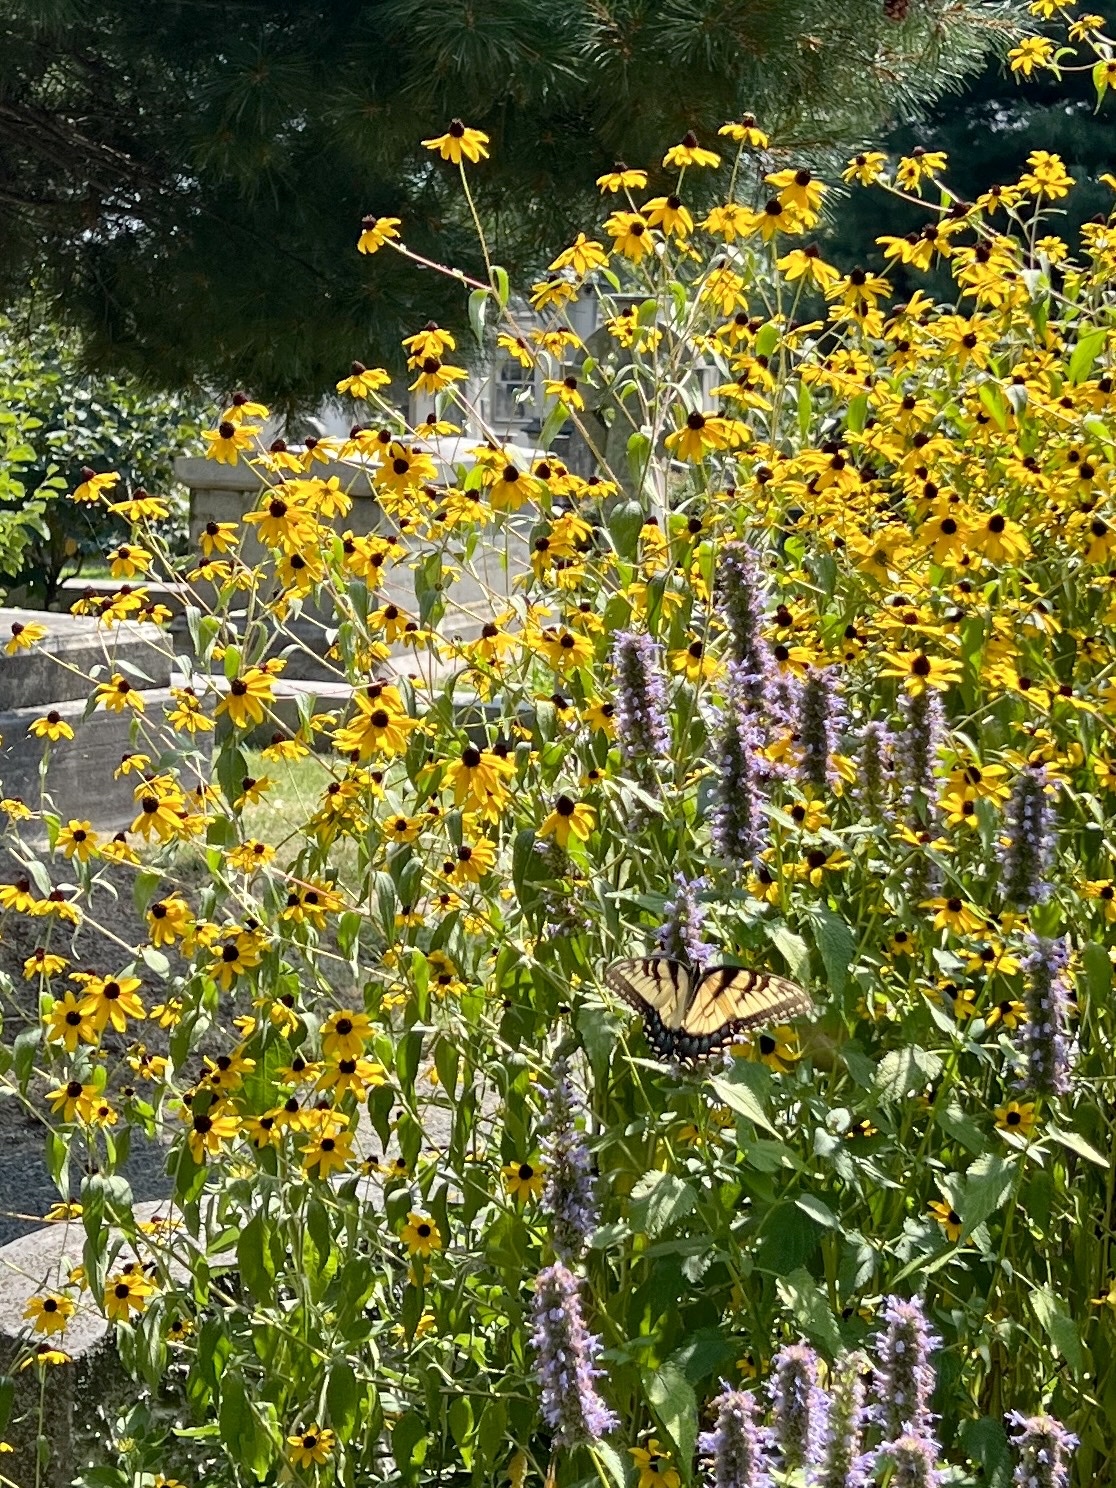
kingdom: Animalia
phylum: Arthropoda
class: Insecta
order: Lepidoptera
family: Papilionidae
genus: Papilio
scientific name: Papilio glaucus
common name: Tiger swallowtail
